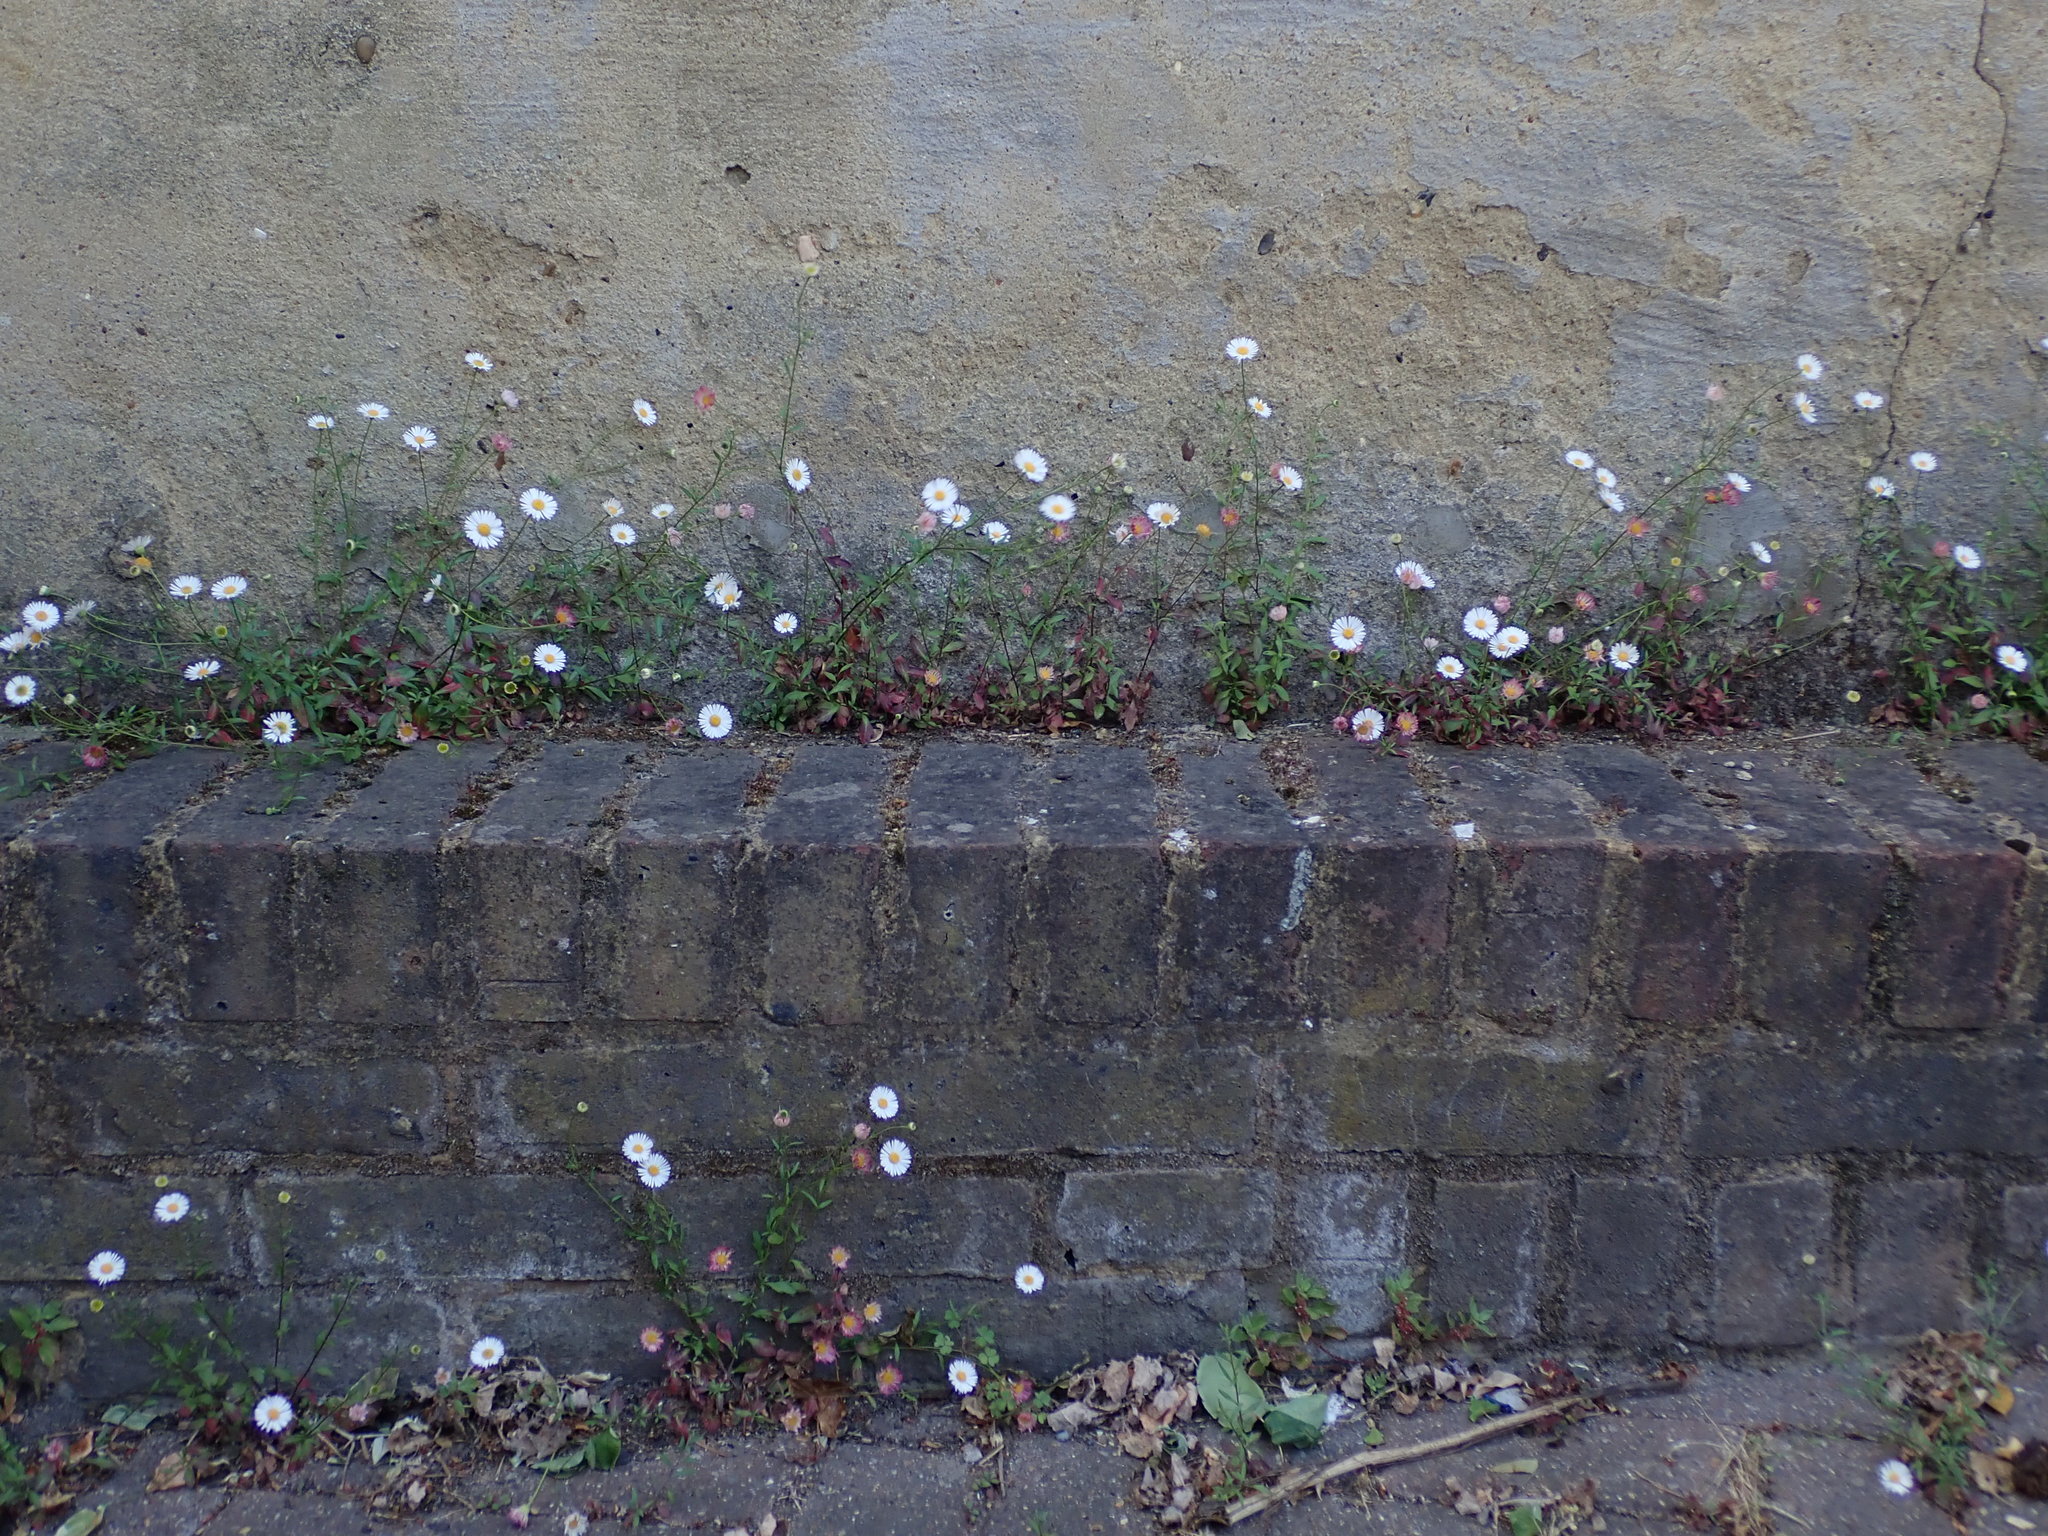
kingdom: Plantae
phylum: Tracheophyta
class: Magnoliopsida
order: Asterales
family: Asteraceae
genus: Erigeron
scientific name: Erigeron karvinskianus
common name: Mexican fleabane
